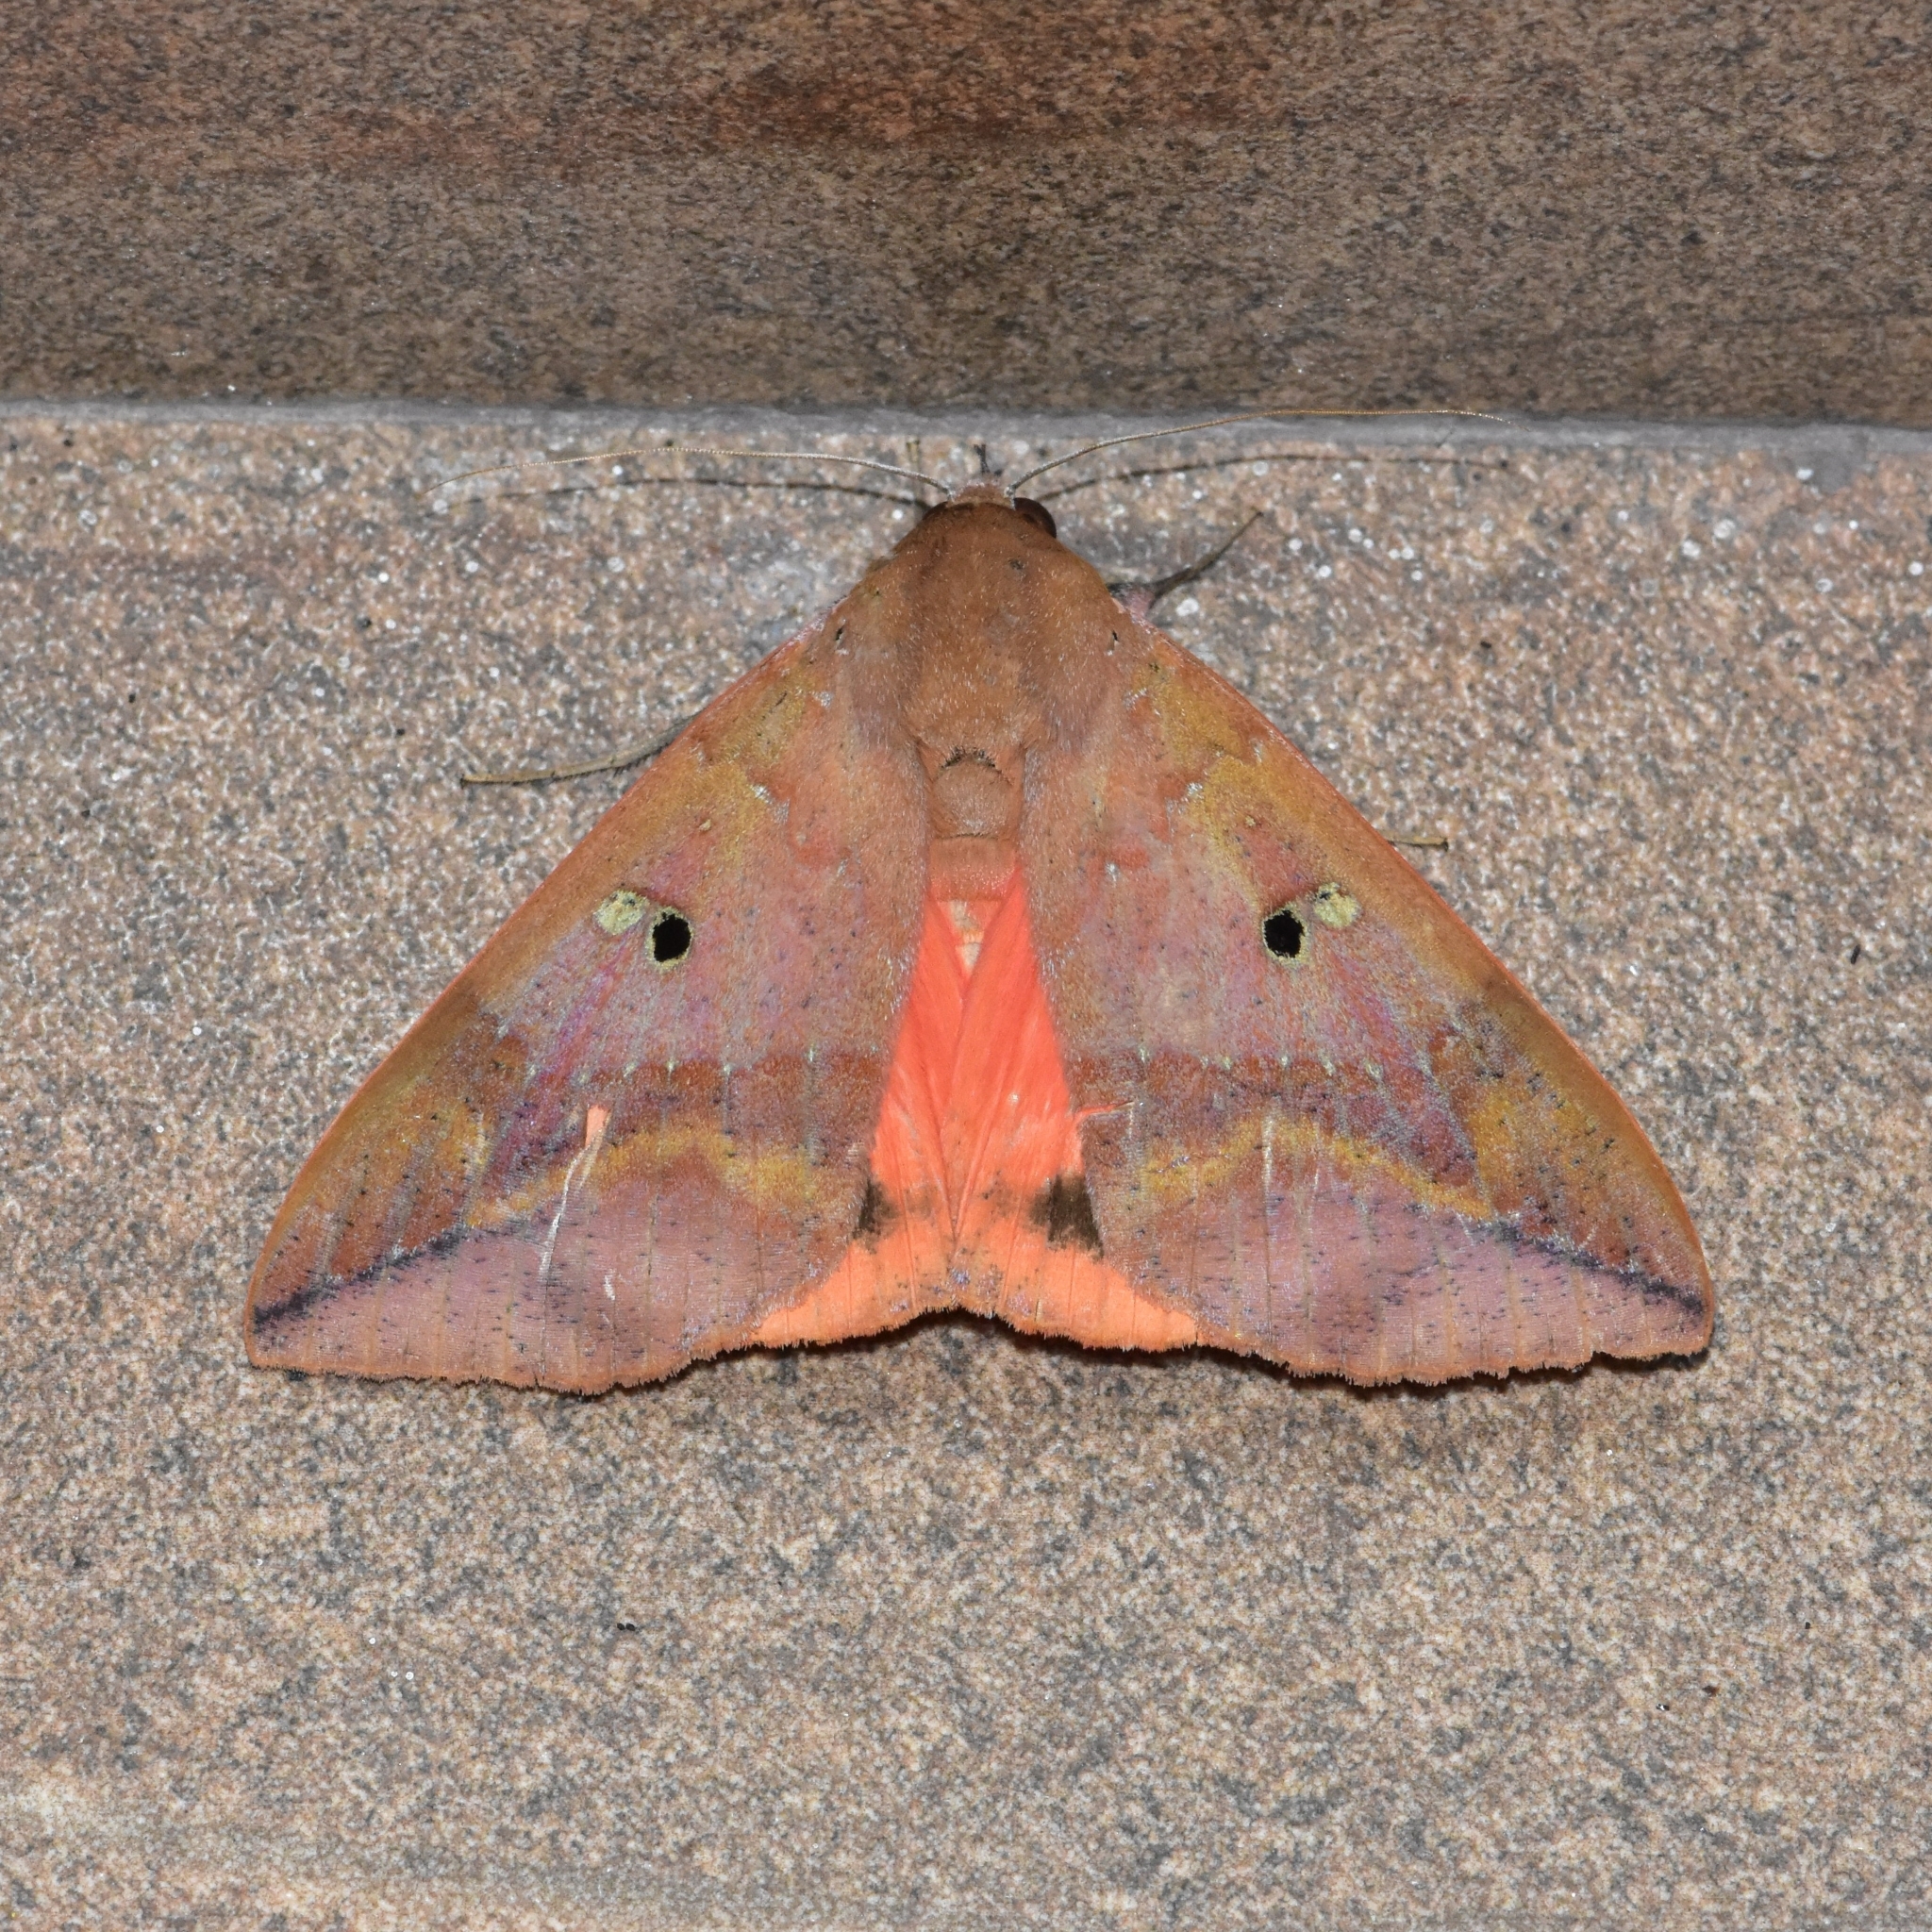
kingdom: Animalia
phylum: Arthropoda
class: Insecta
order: Lepidoptera
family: Erebidae
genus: Thyas
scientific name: Thyas honesta
